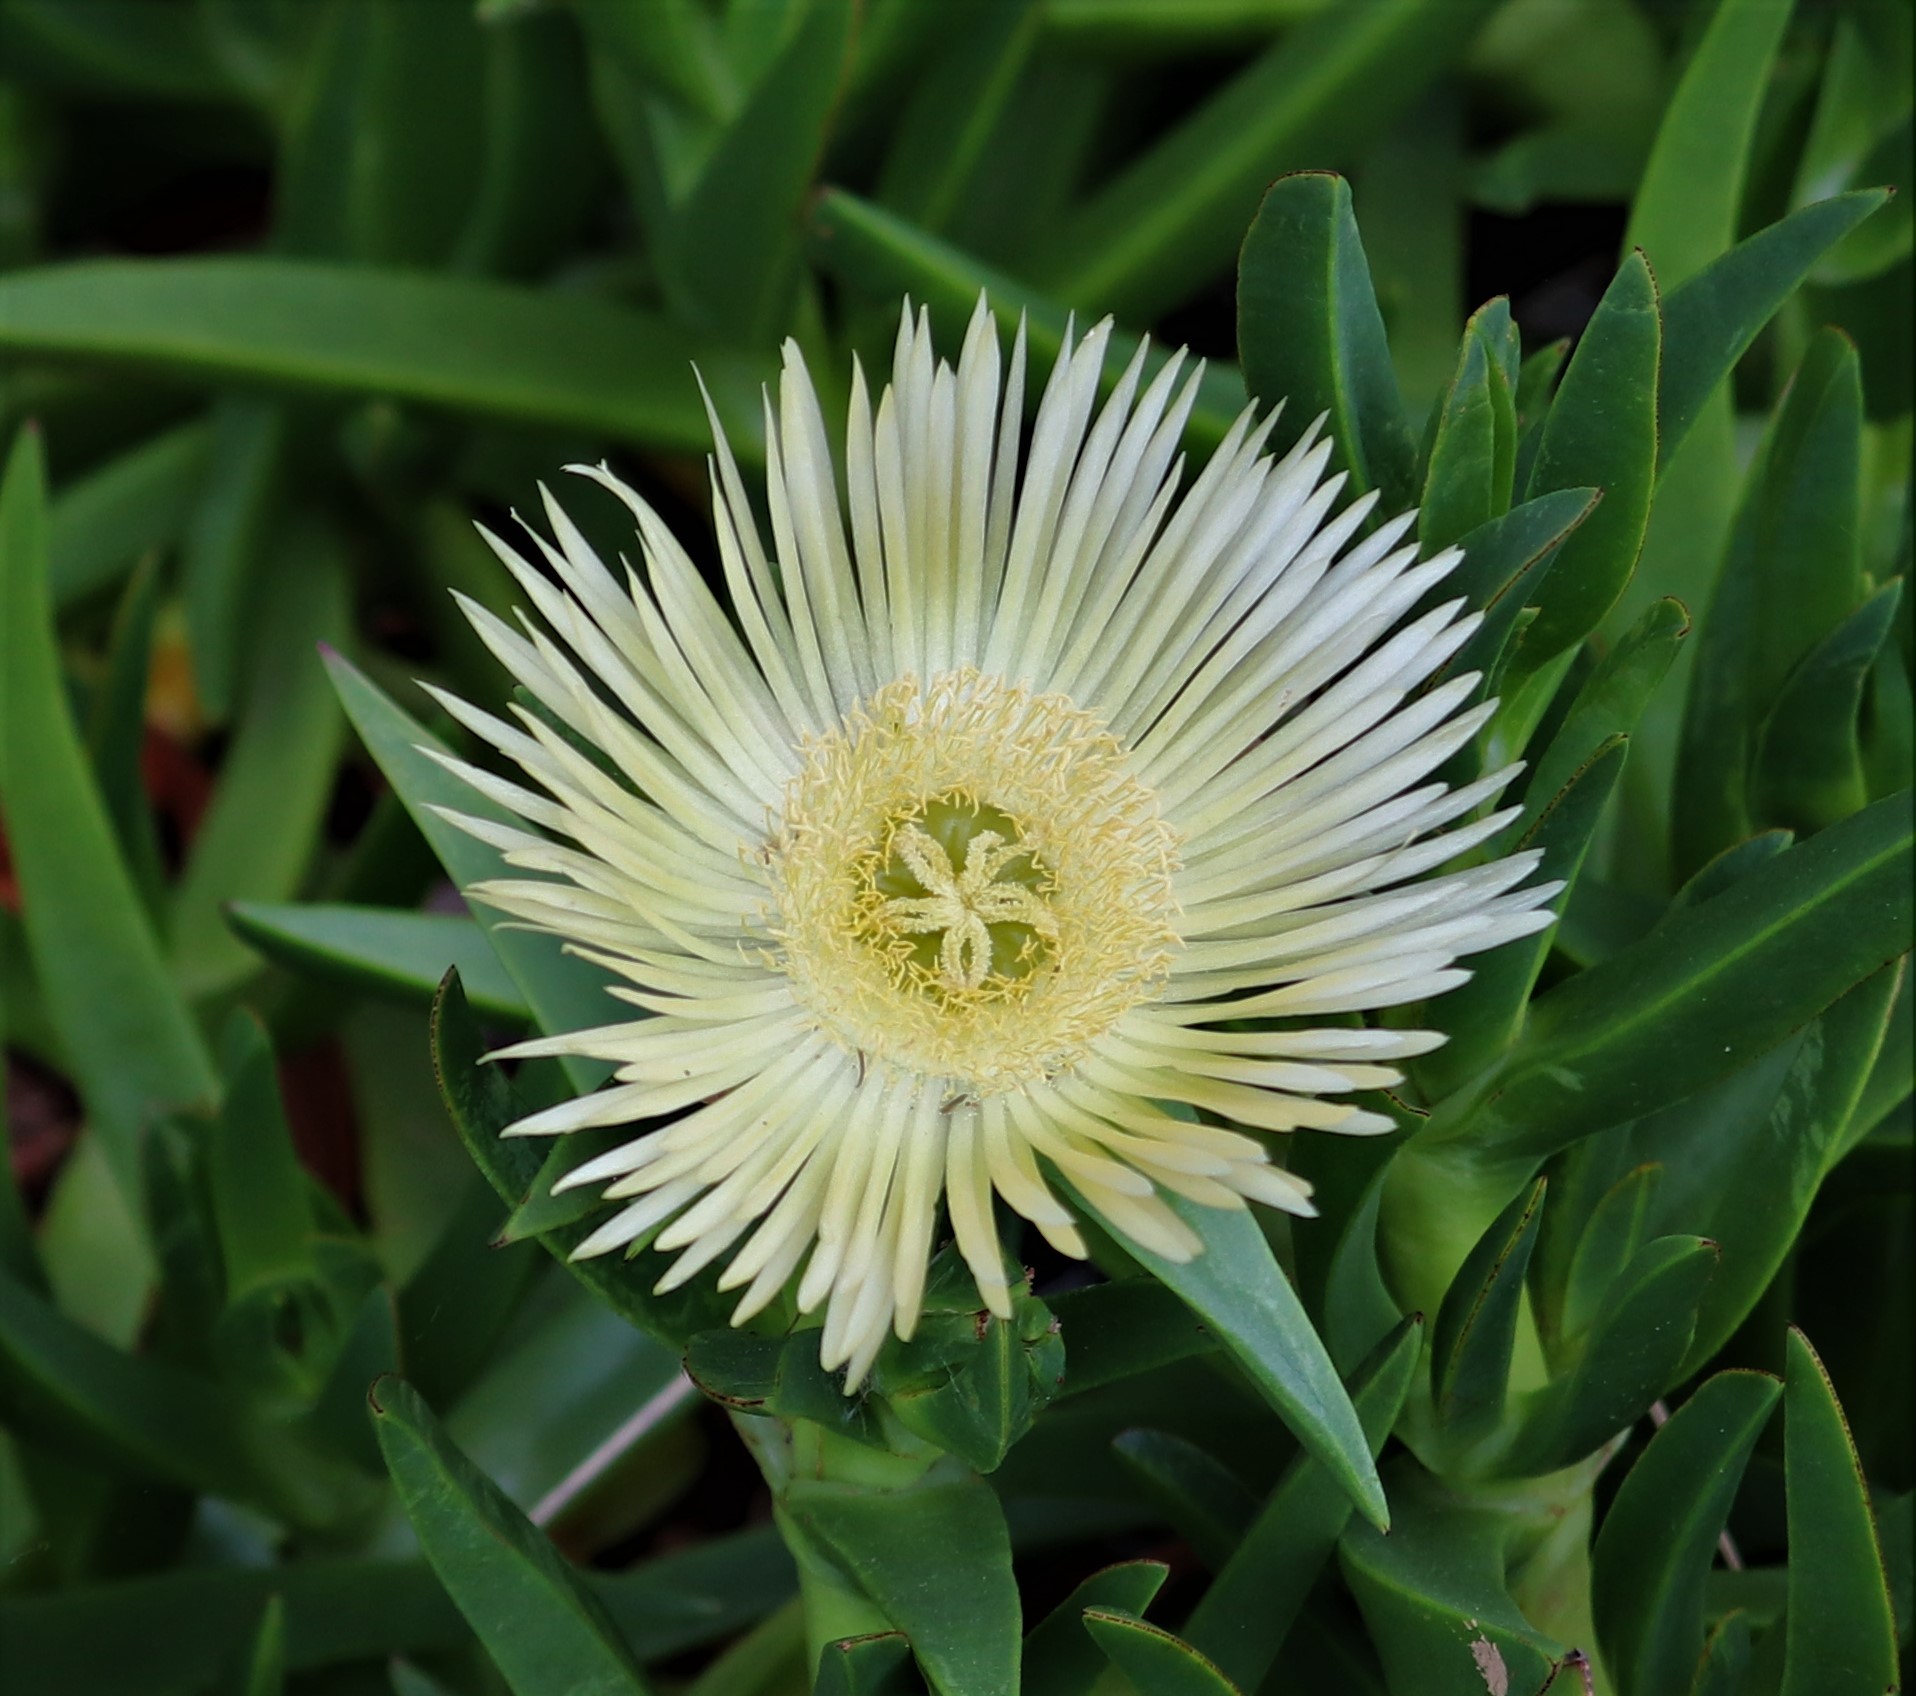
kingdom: Plantae
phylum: Tracheophyta
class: Magnoliopsida
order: Caryophyllales
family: Aizoaceae
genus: Carpobrotus
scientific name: Carpobrotus edulis
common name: Hottentot-fig
